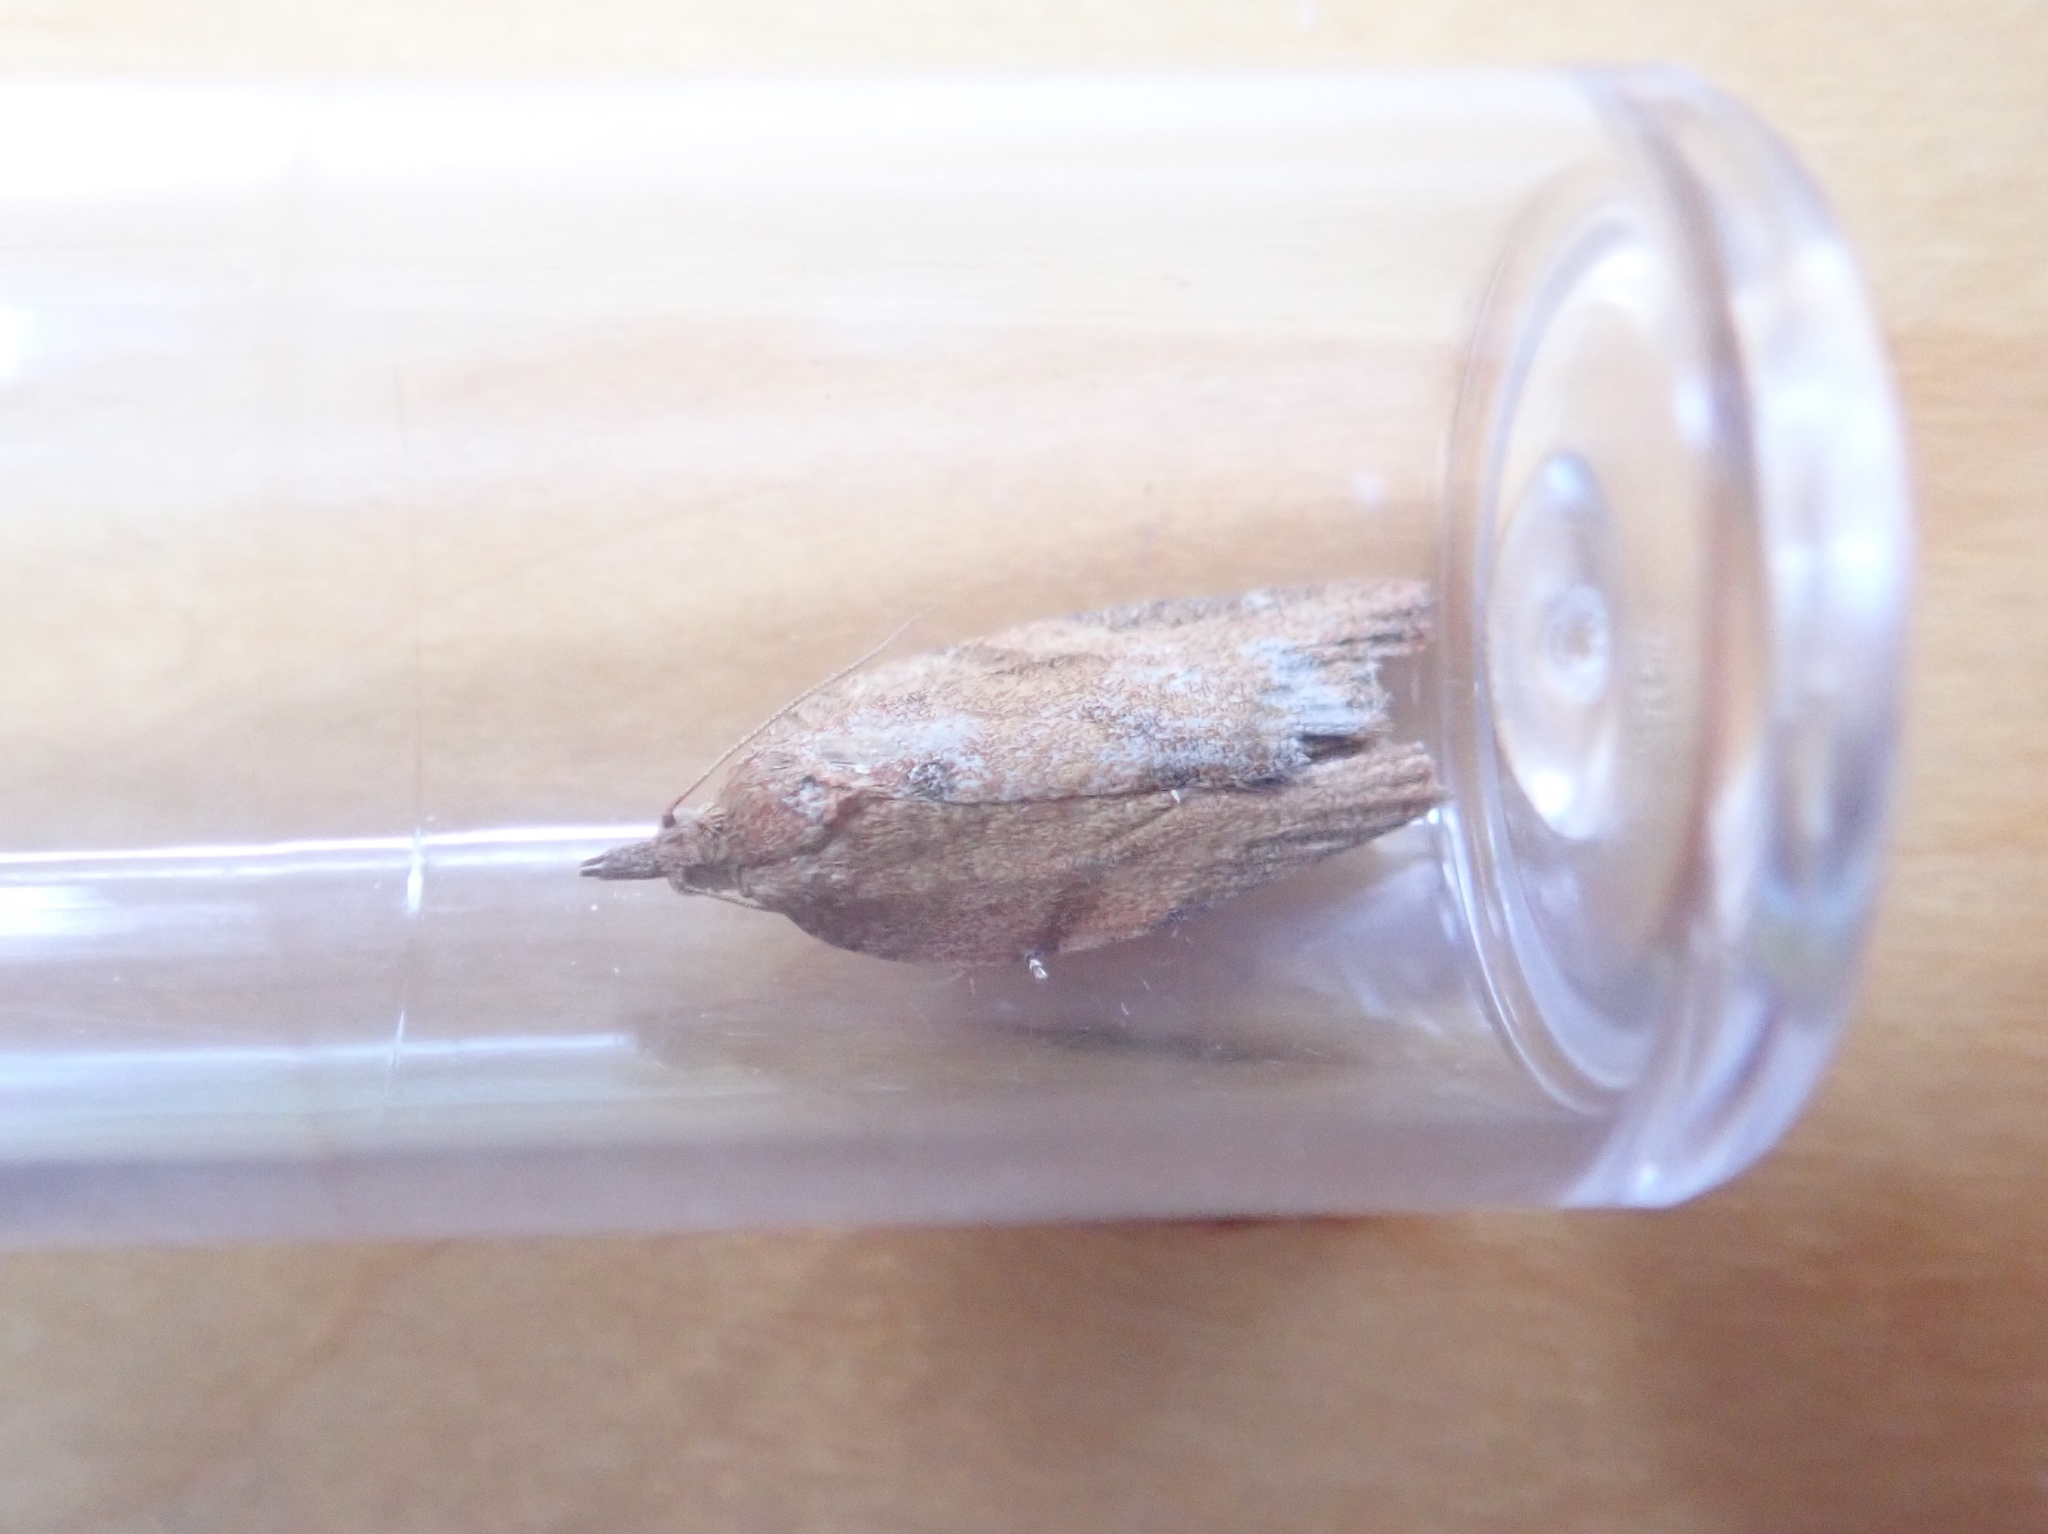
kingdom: Animalia
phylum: Arthropoda
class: Insecta
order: Lepidoptera
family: Tortricidae
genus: Epiphyas
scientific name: Epiphyas postvittana
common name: Light brown apple moth
